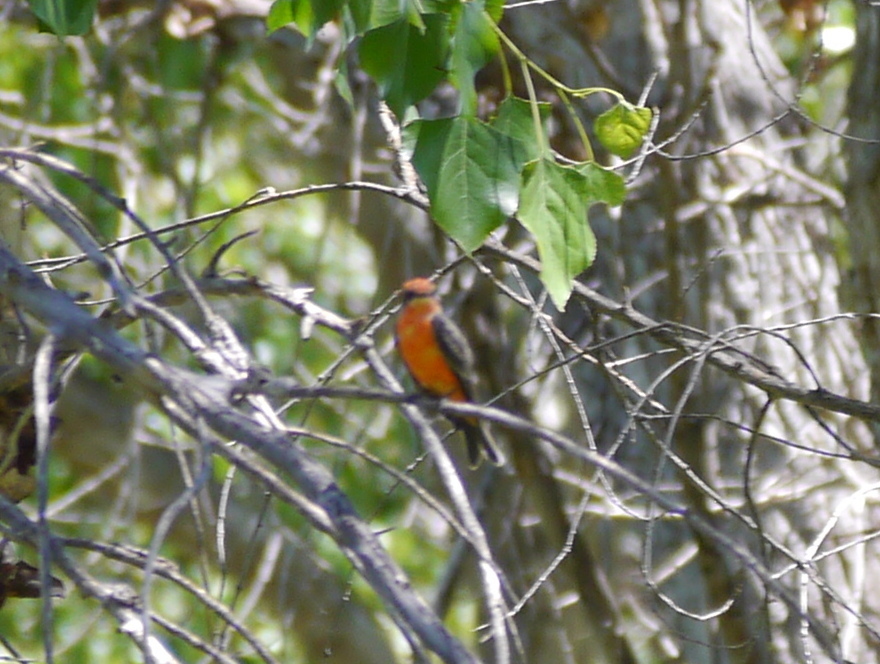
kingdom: Animalia
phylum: Chordata
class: Aves
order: Passeriformes
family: Tyrannidae
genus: Pyrocephalus
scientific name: Pyrocephalus rubinus
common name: Vermilion flycatcher
